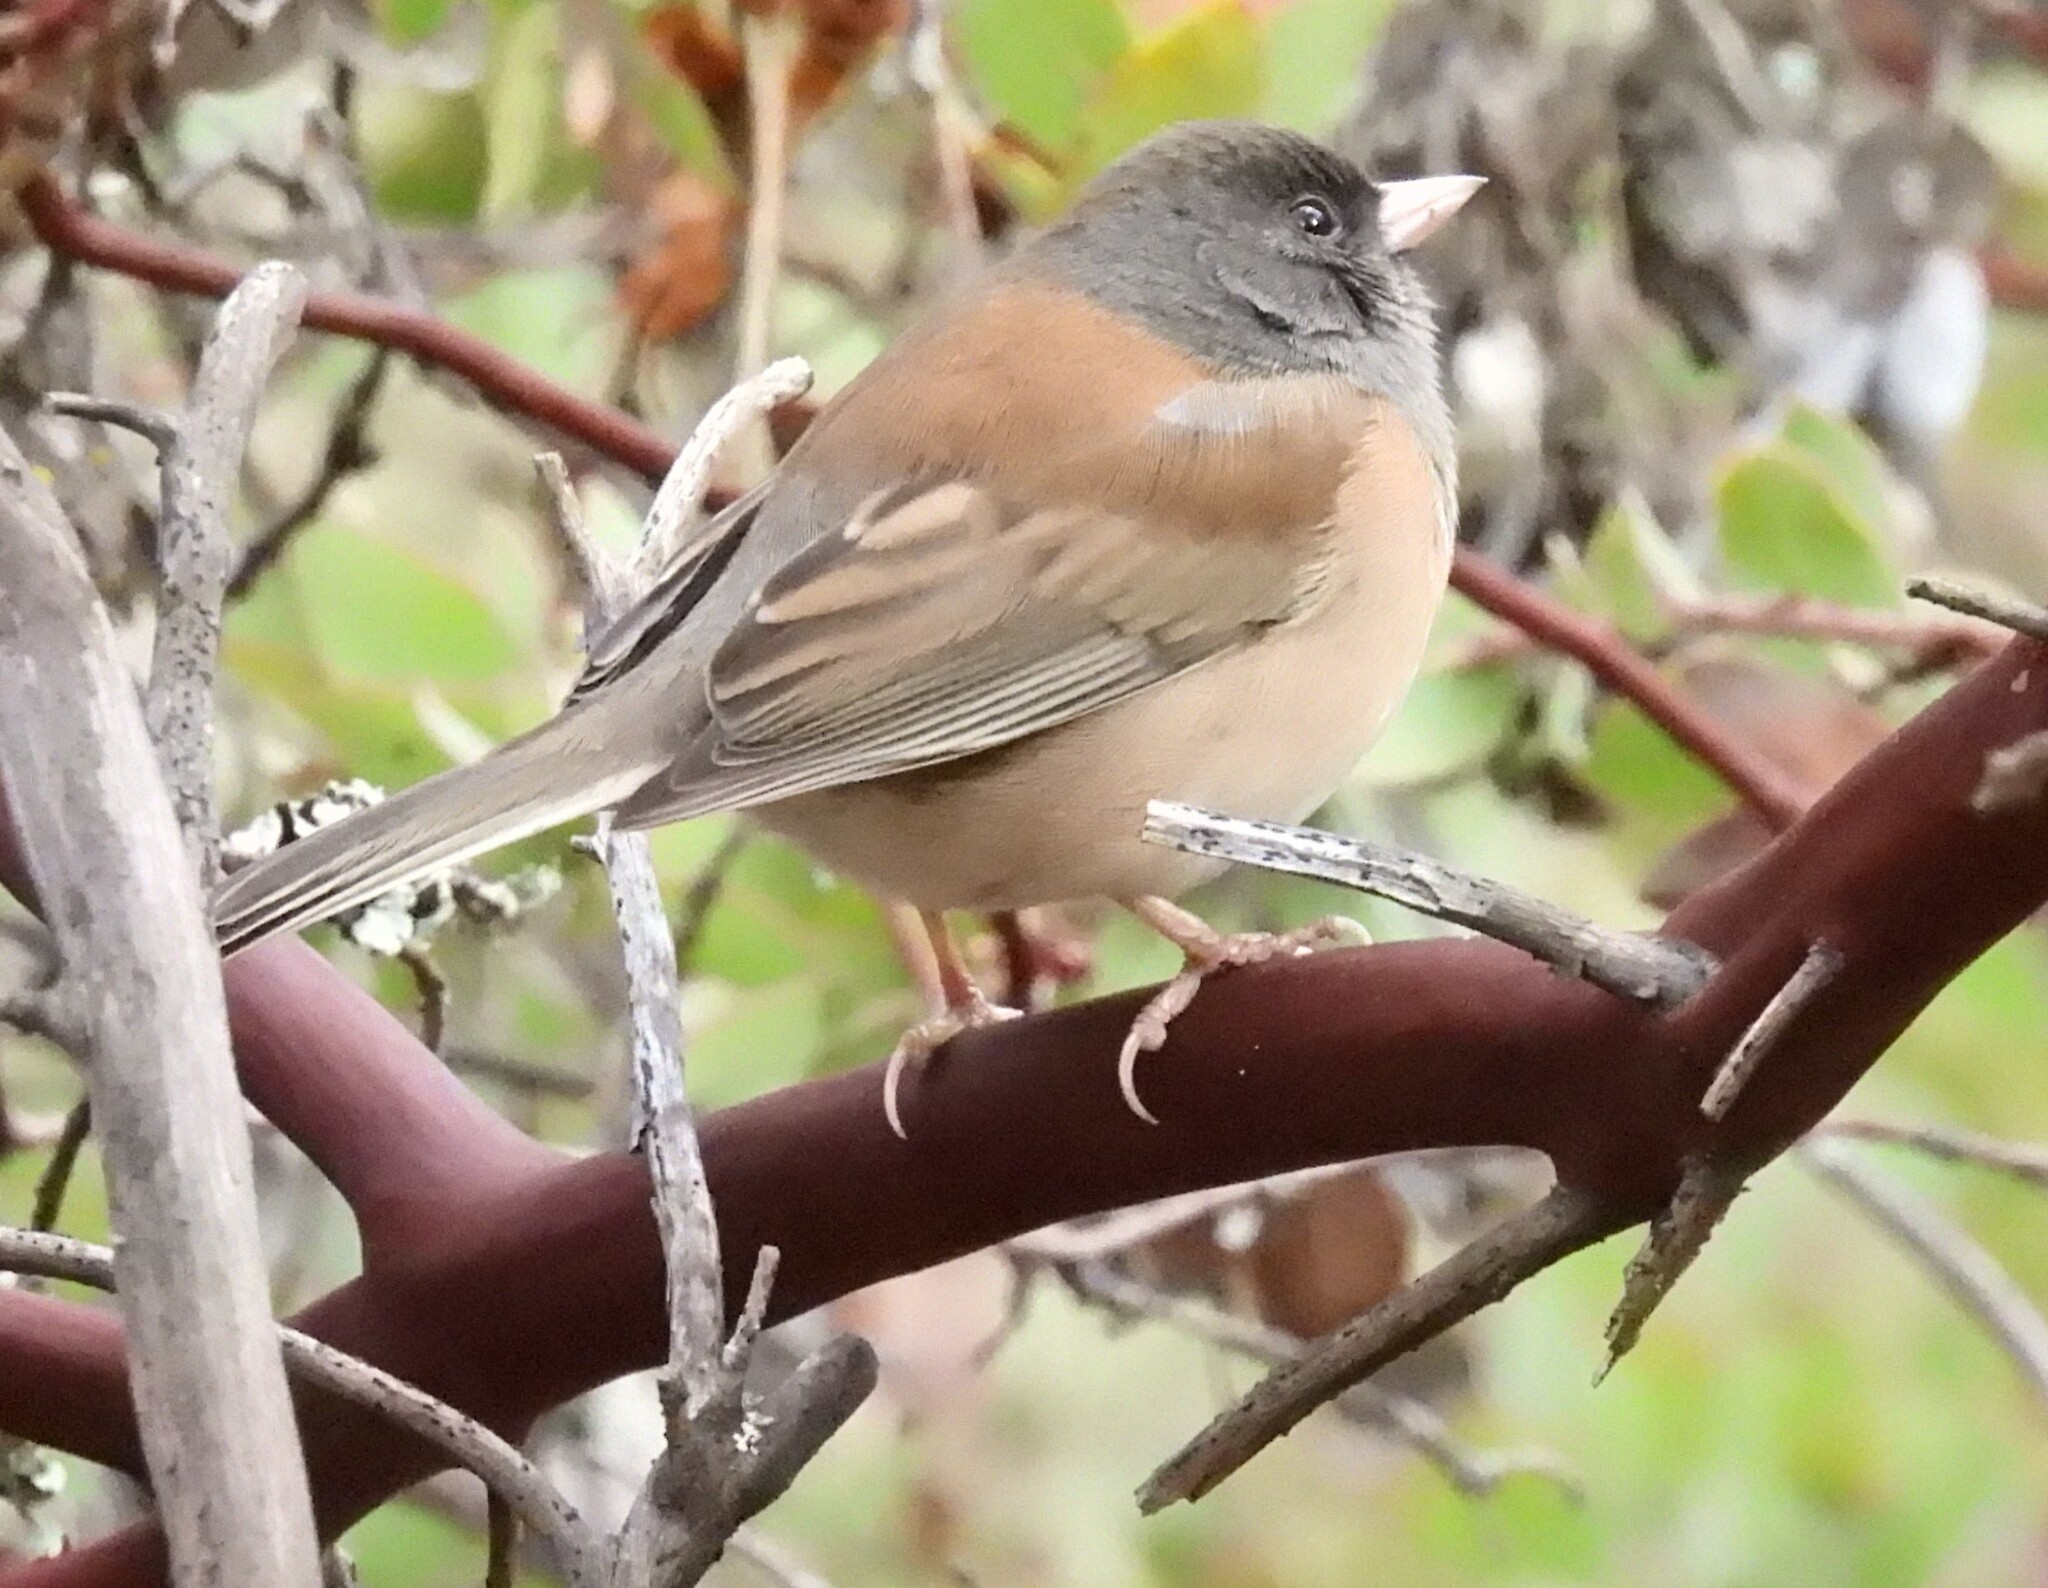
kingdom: Animalia
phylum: Chordata
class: Aves
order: Passeriformes
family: Passerellidae
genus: Junco
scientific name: Junco hyemalis
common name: Dark-eyed junco
